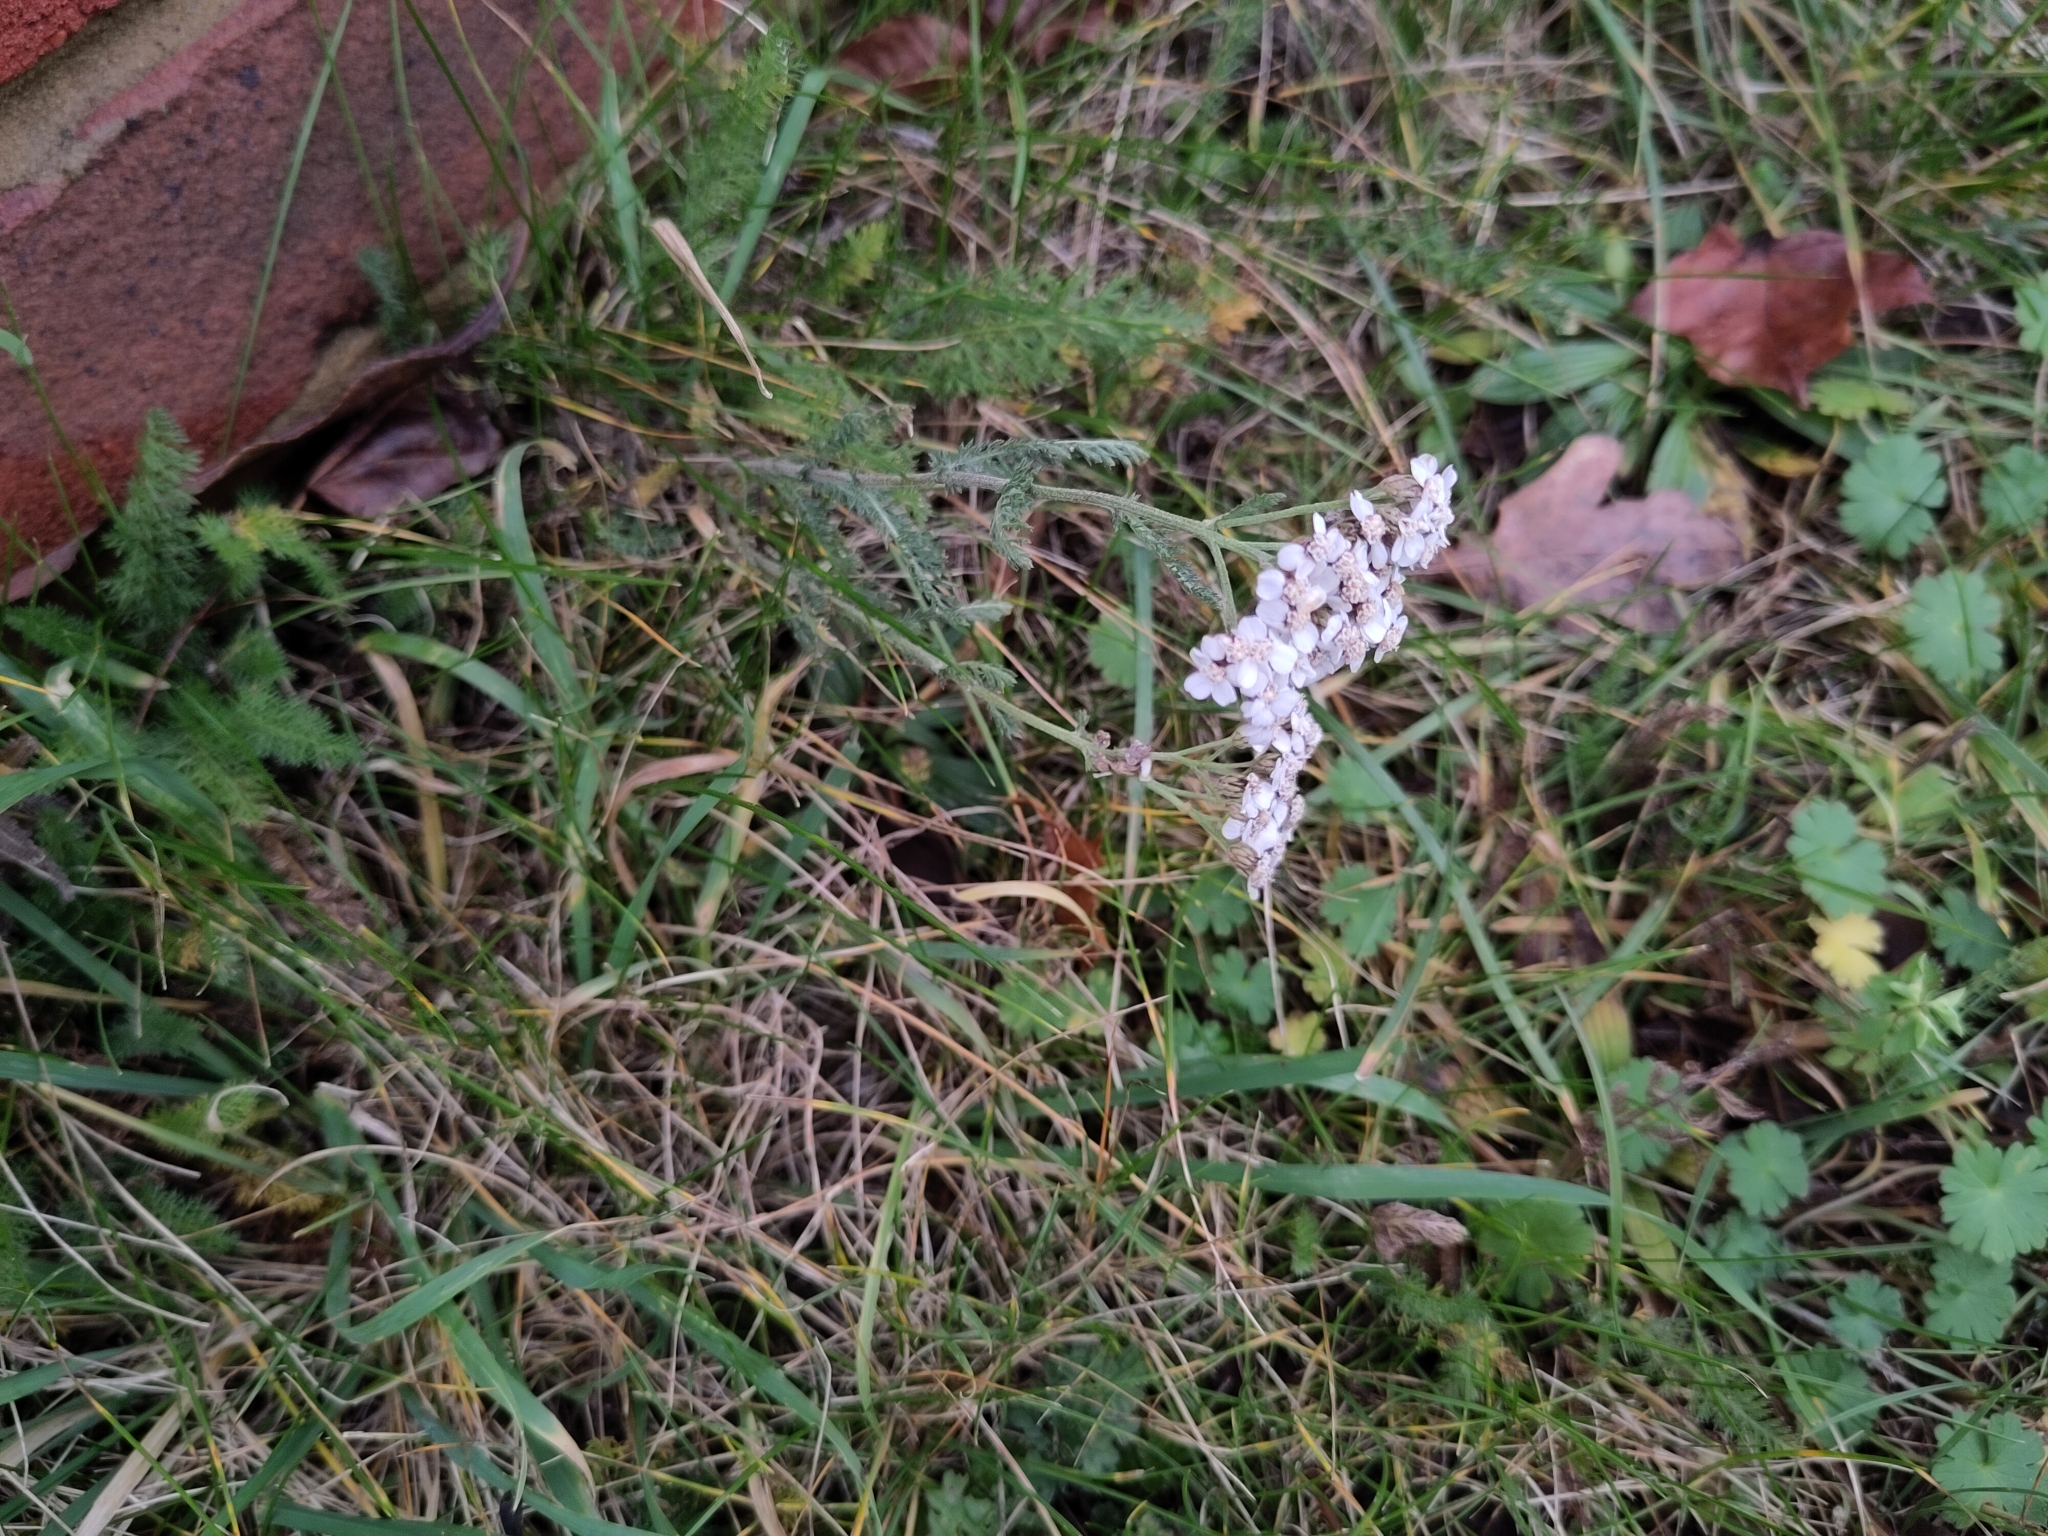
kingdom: Plantae
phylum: Tracheophyta
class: Magnoliopsida
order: Asterales
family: Asteraceae
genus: Achillea
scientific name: Achillea millefolium
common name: Yarrow
